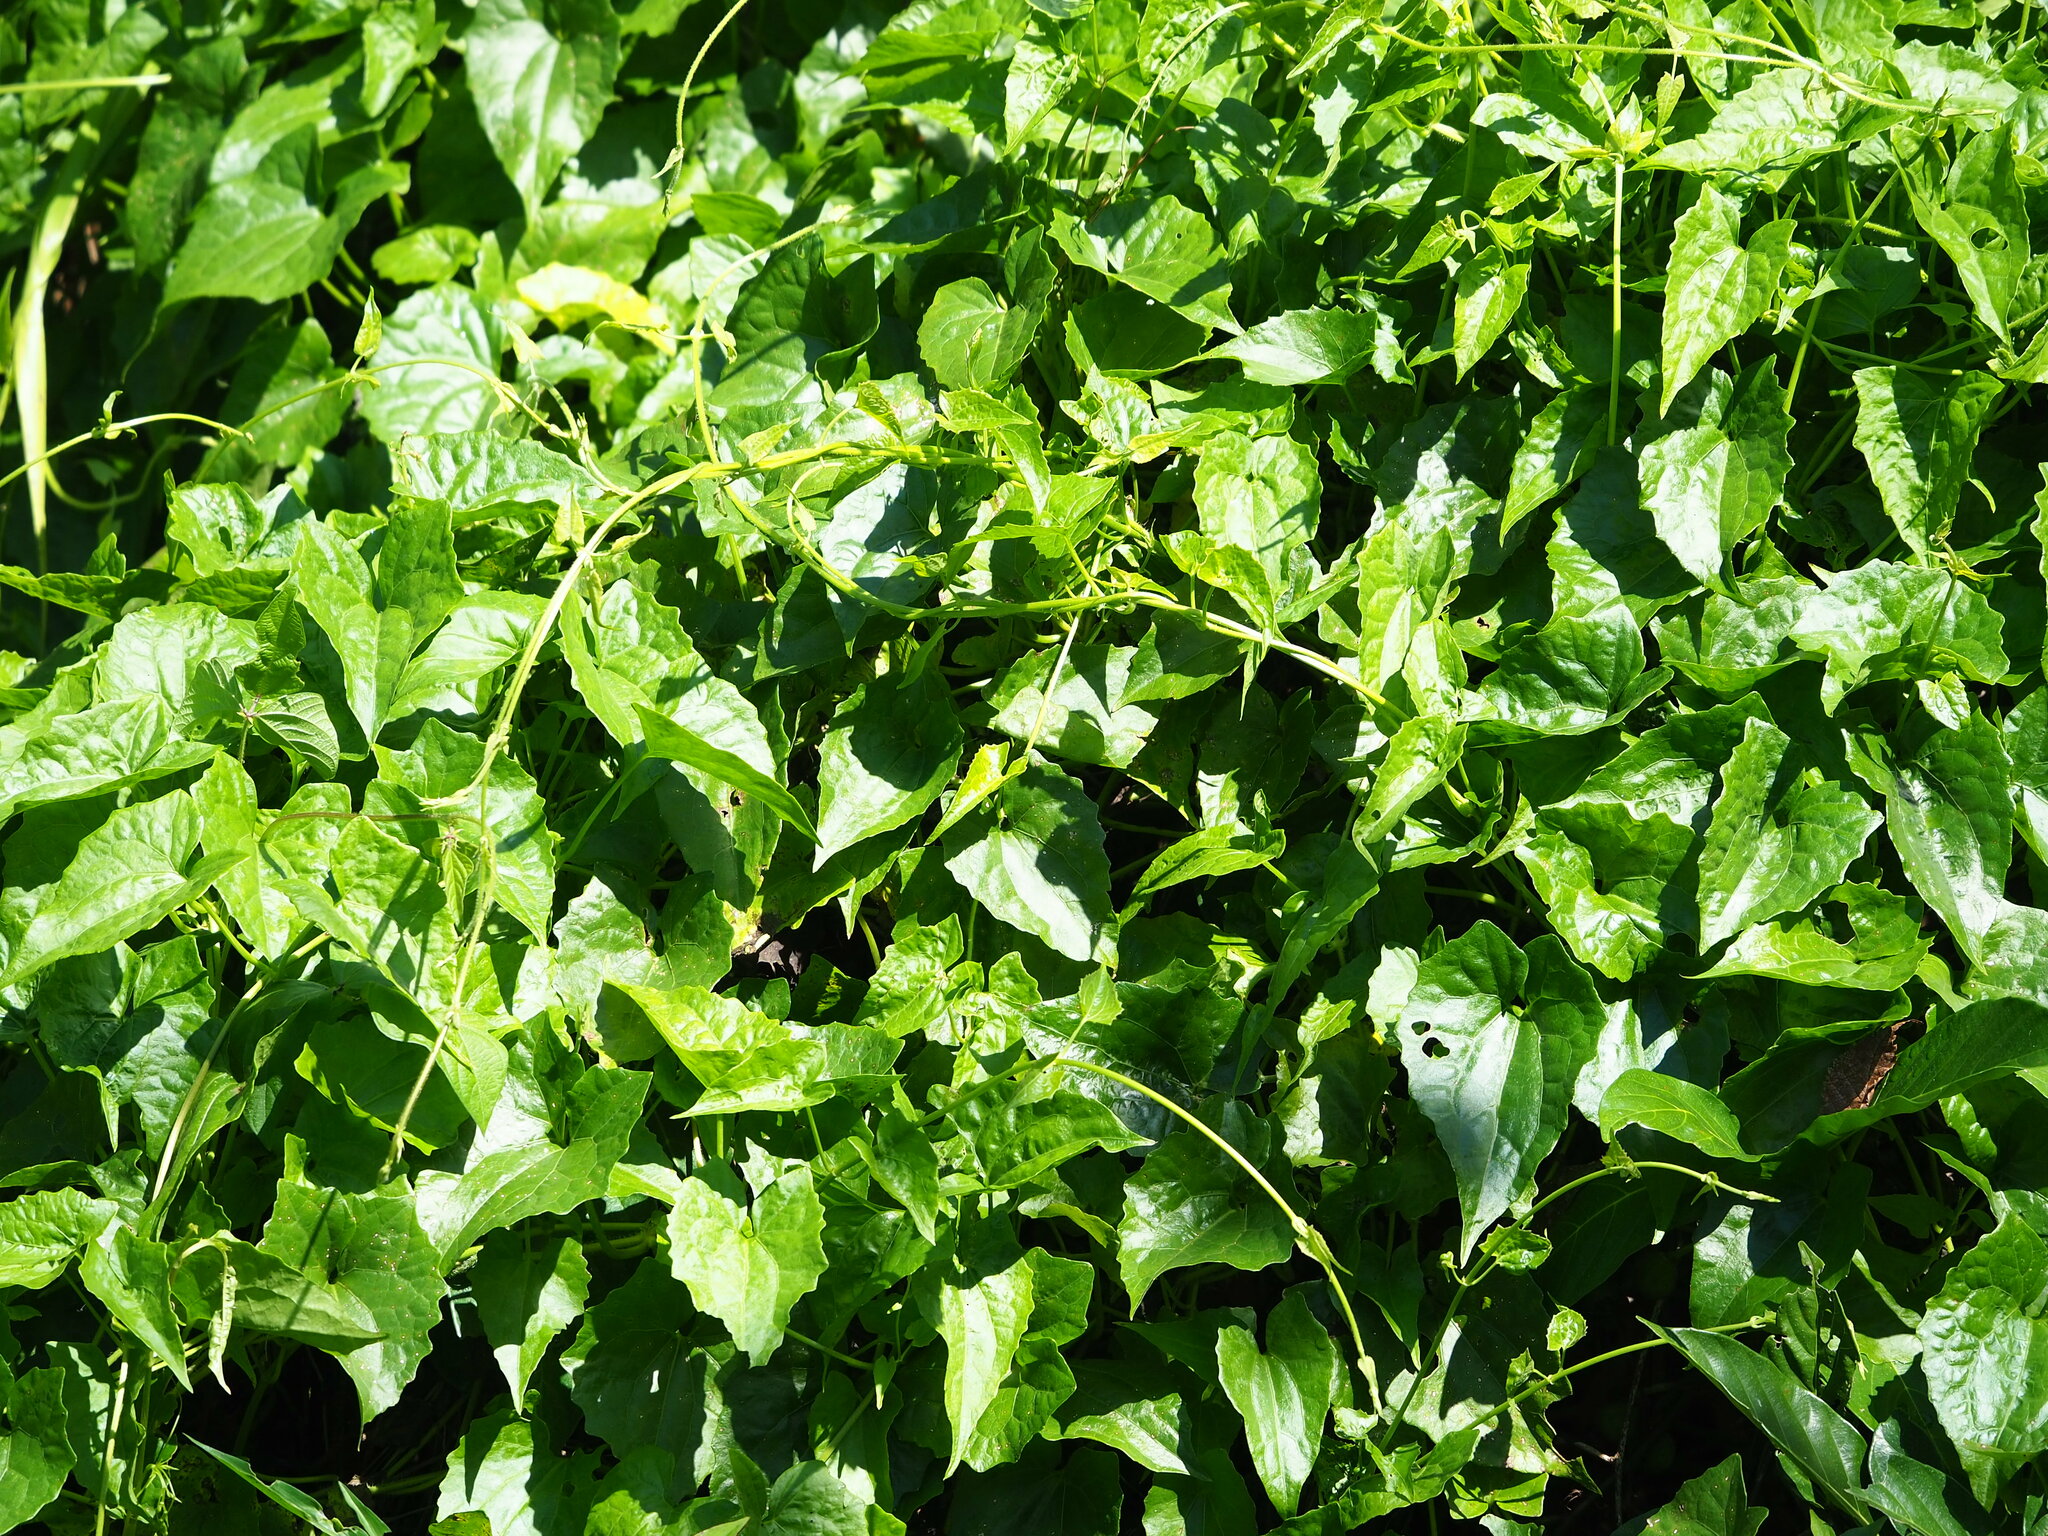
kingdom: Plantae
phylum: Tracheophyta
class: Magnoliopsida
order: Asterales
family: Asteraceae
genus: Mikania
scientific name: Mikania micrantha
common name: Mile-a-minute
